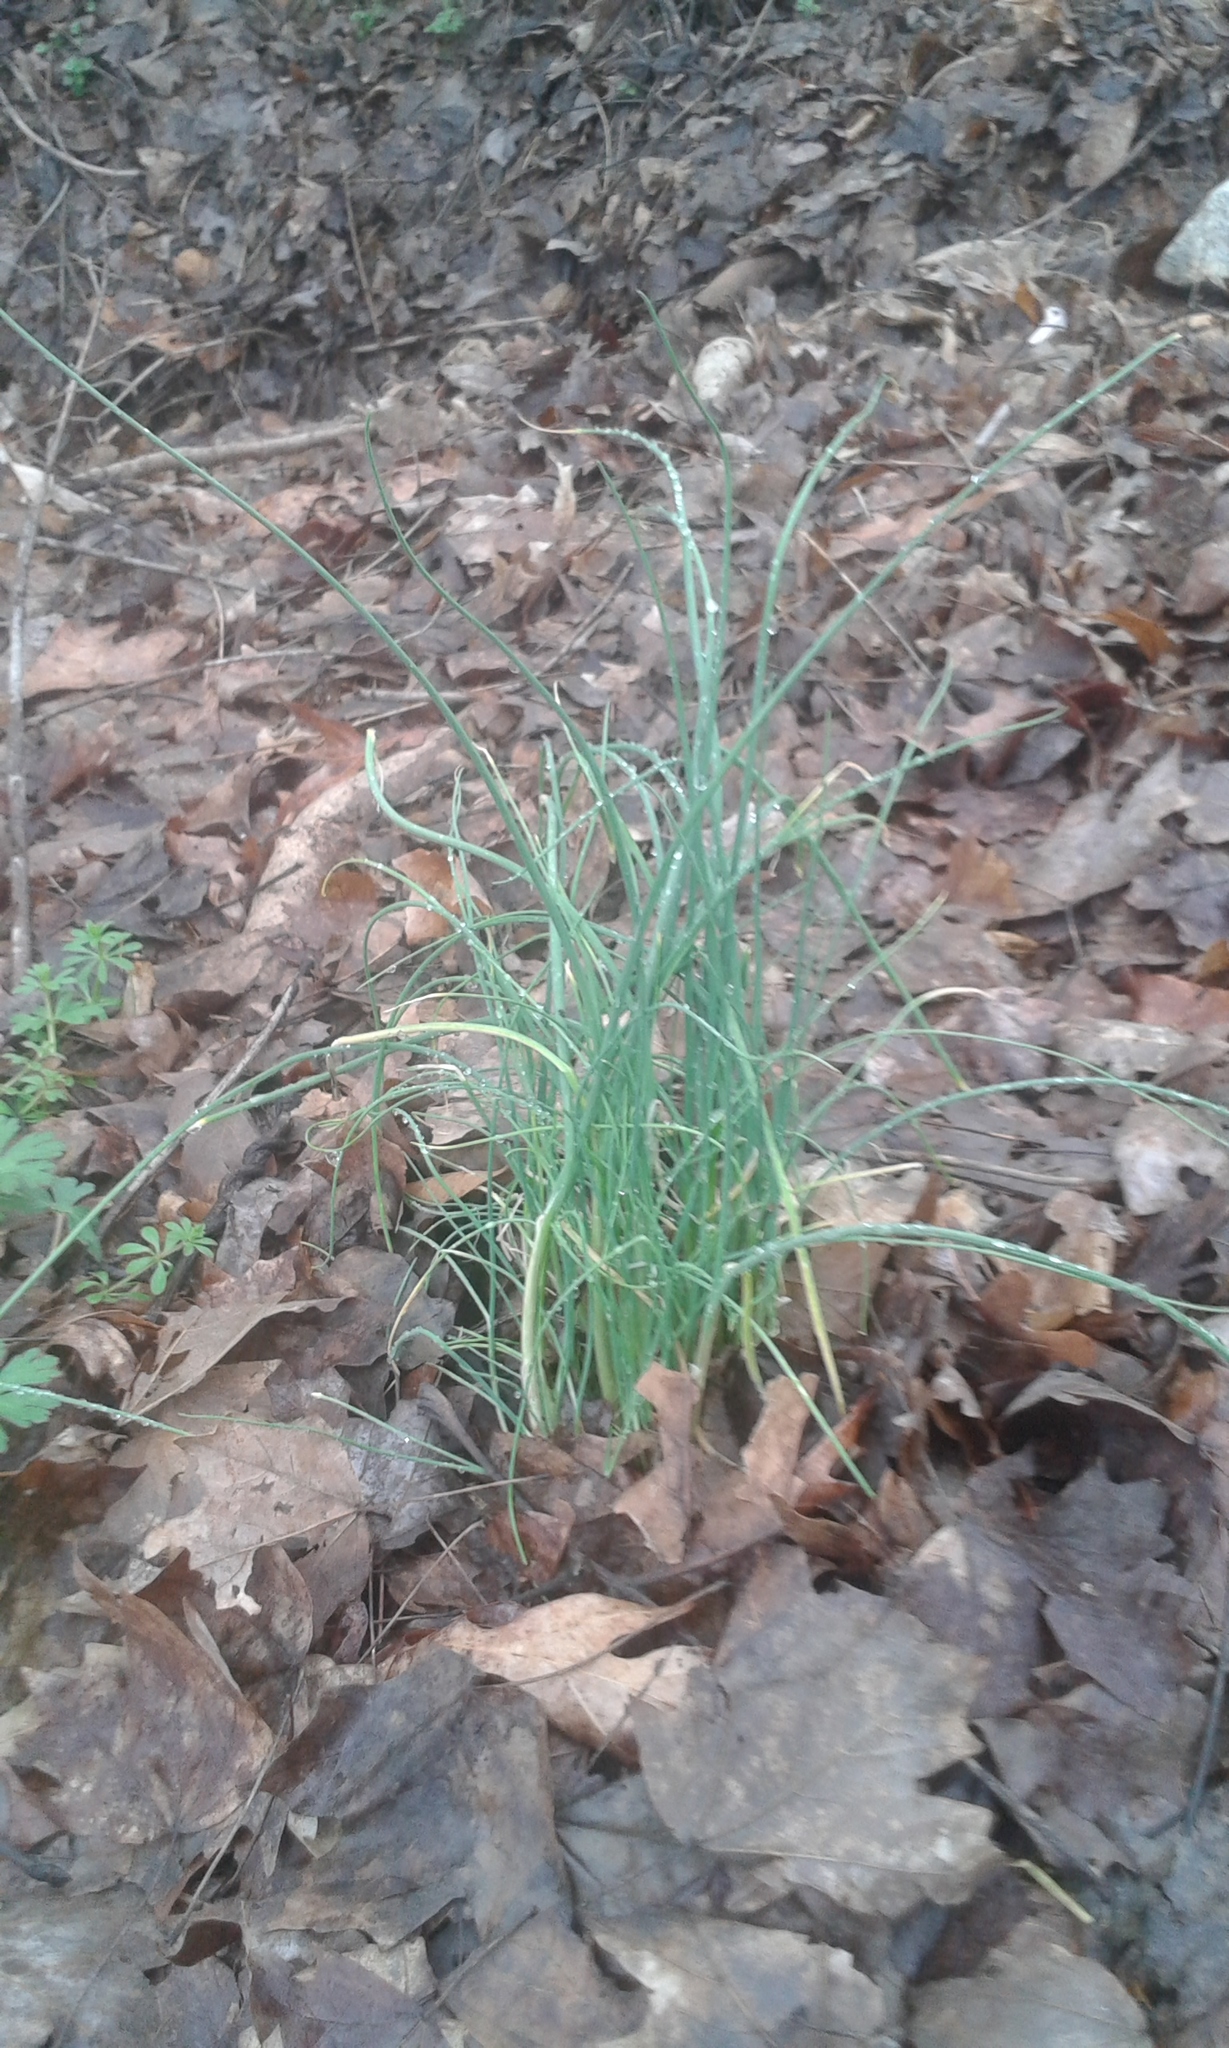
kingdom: Plantae
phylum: Tracheophyta
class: Liliopsida
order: Asparagales
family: Amaryllidaceae
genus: Allium
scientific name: Allium vineale
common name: Crow garlic
